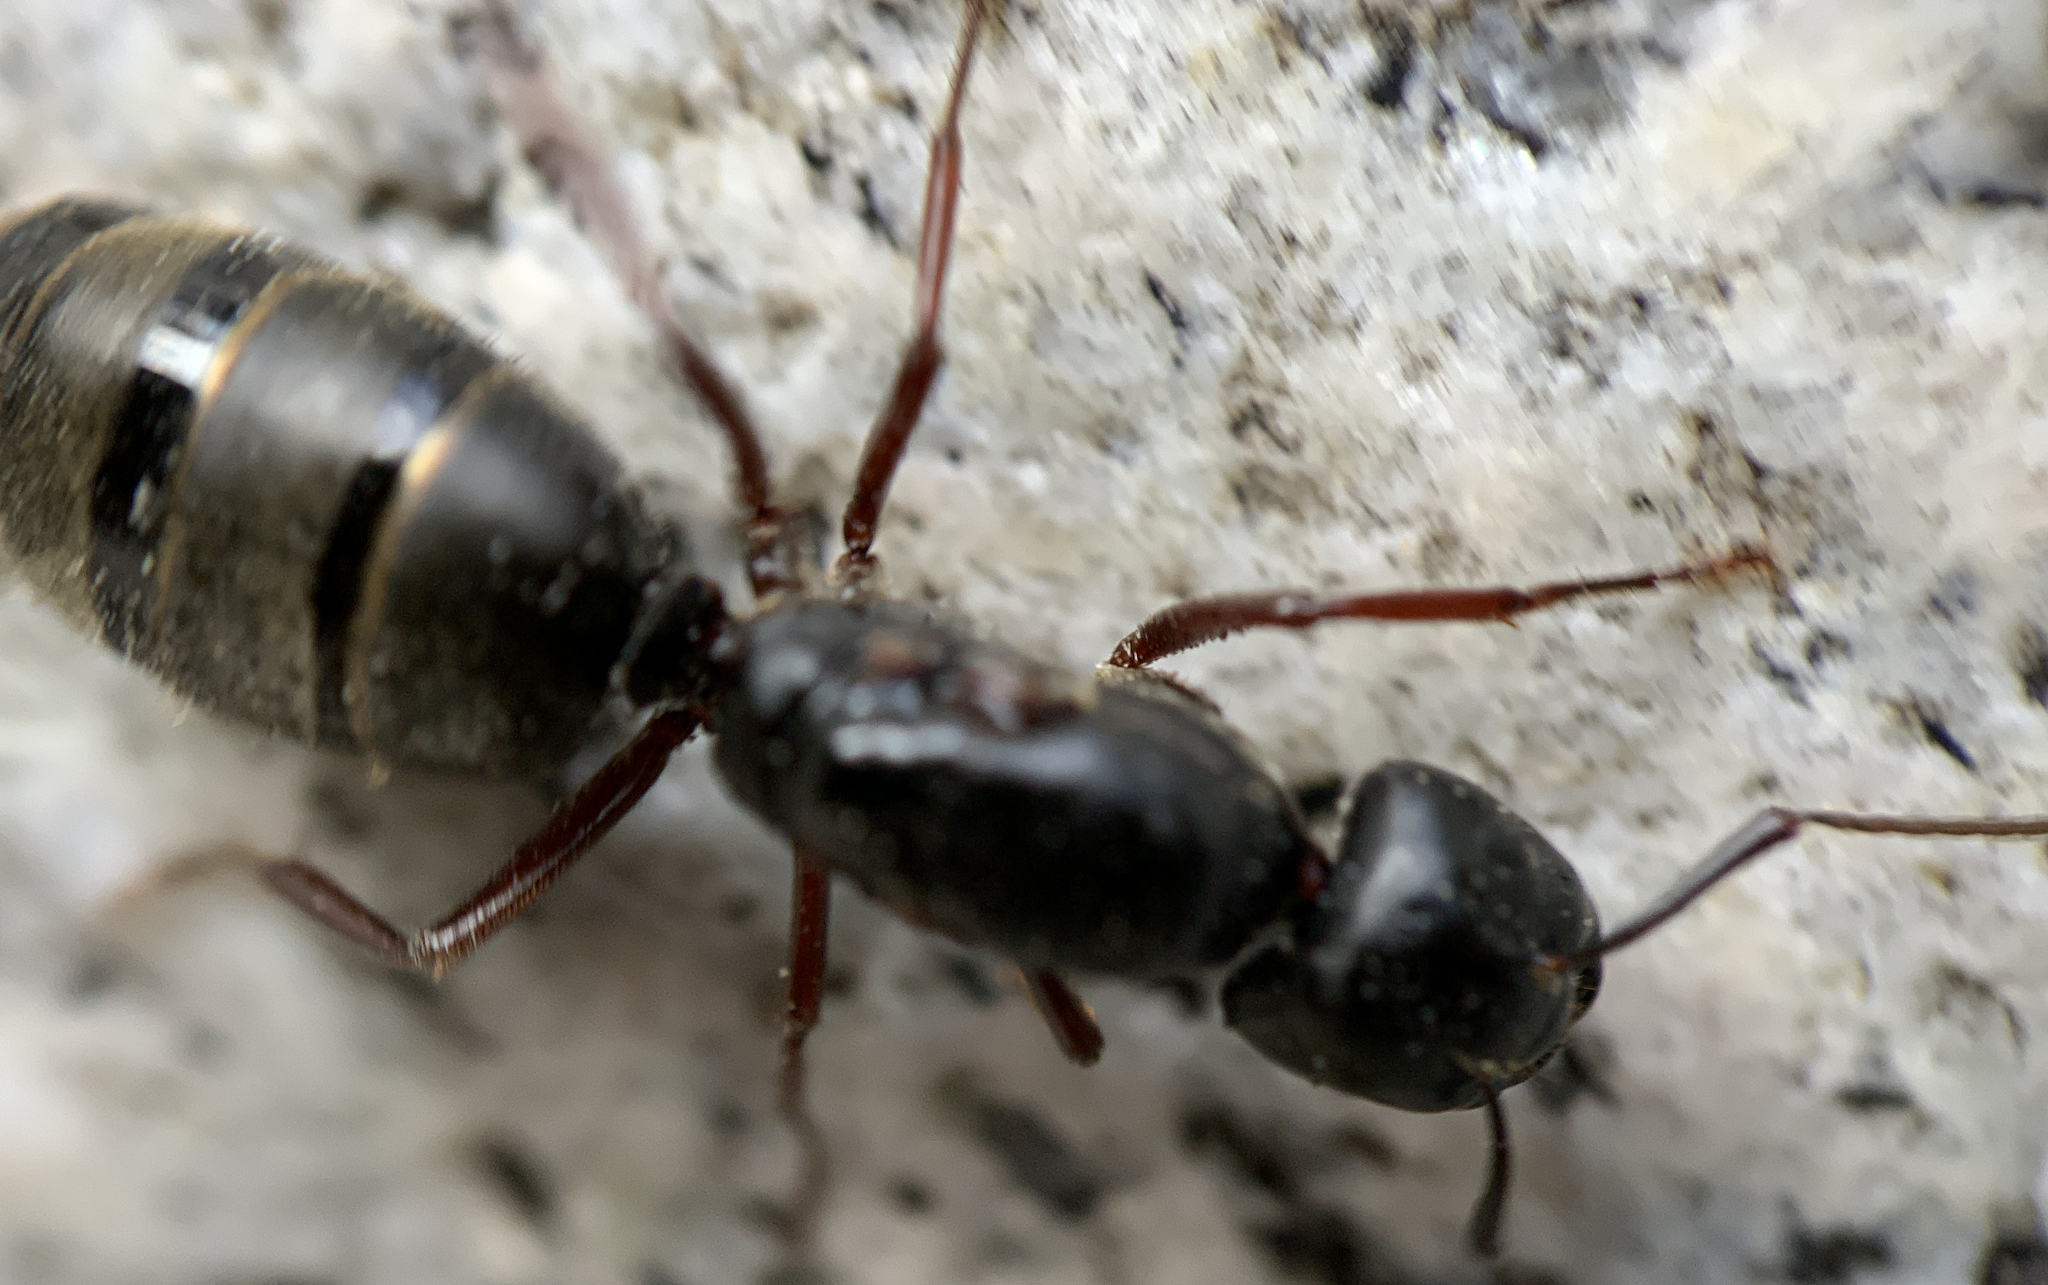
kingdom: Animalia
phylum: Arthropoda
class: Insecta
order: Hymenoptera
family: Formicidae
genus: Camponotus
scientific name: Camponotus modoc
